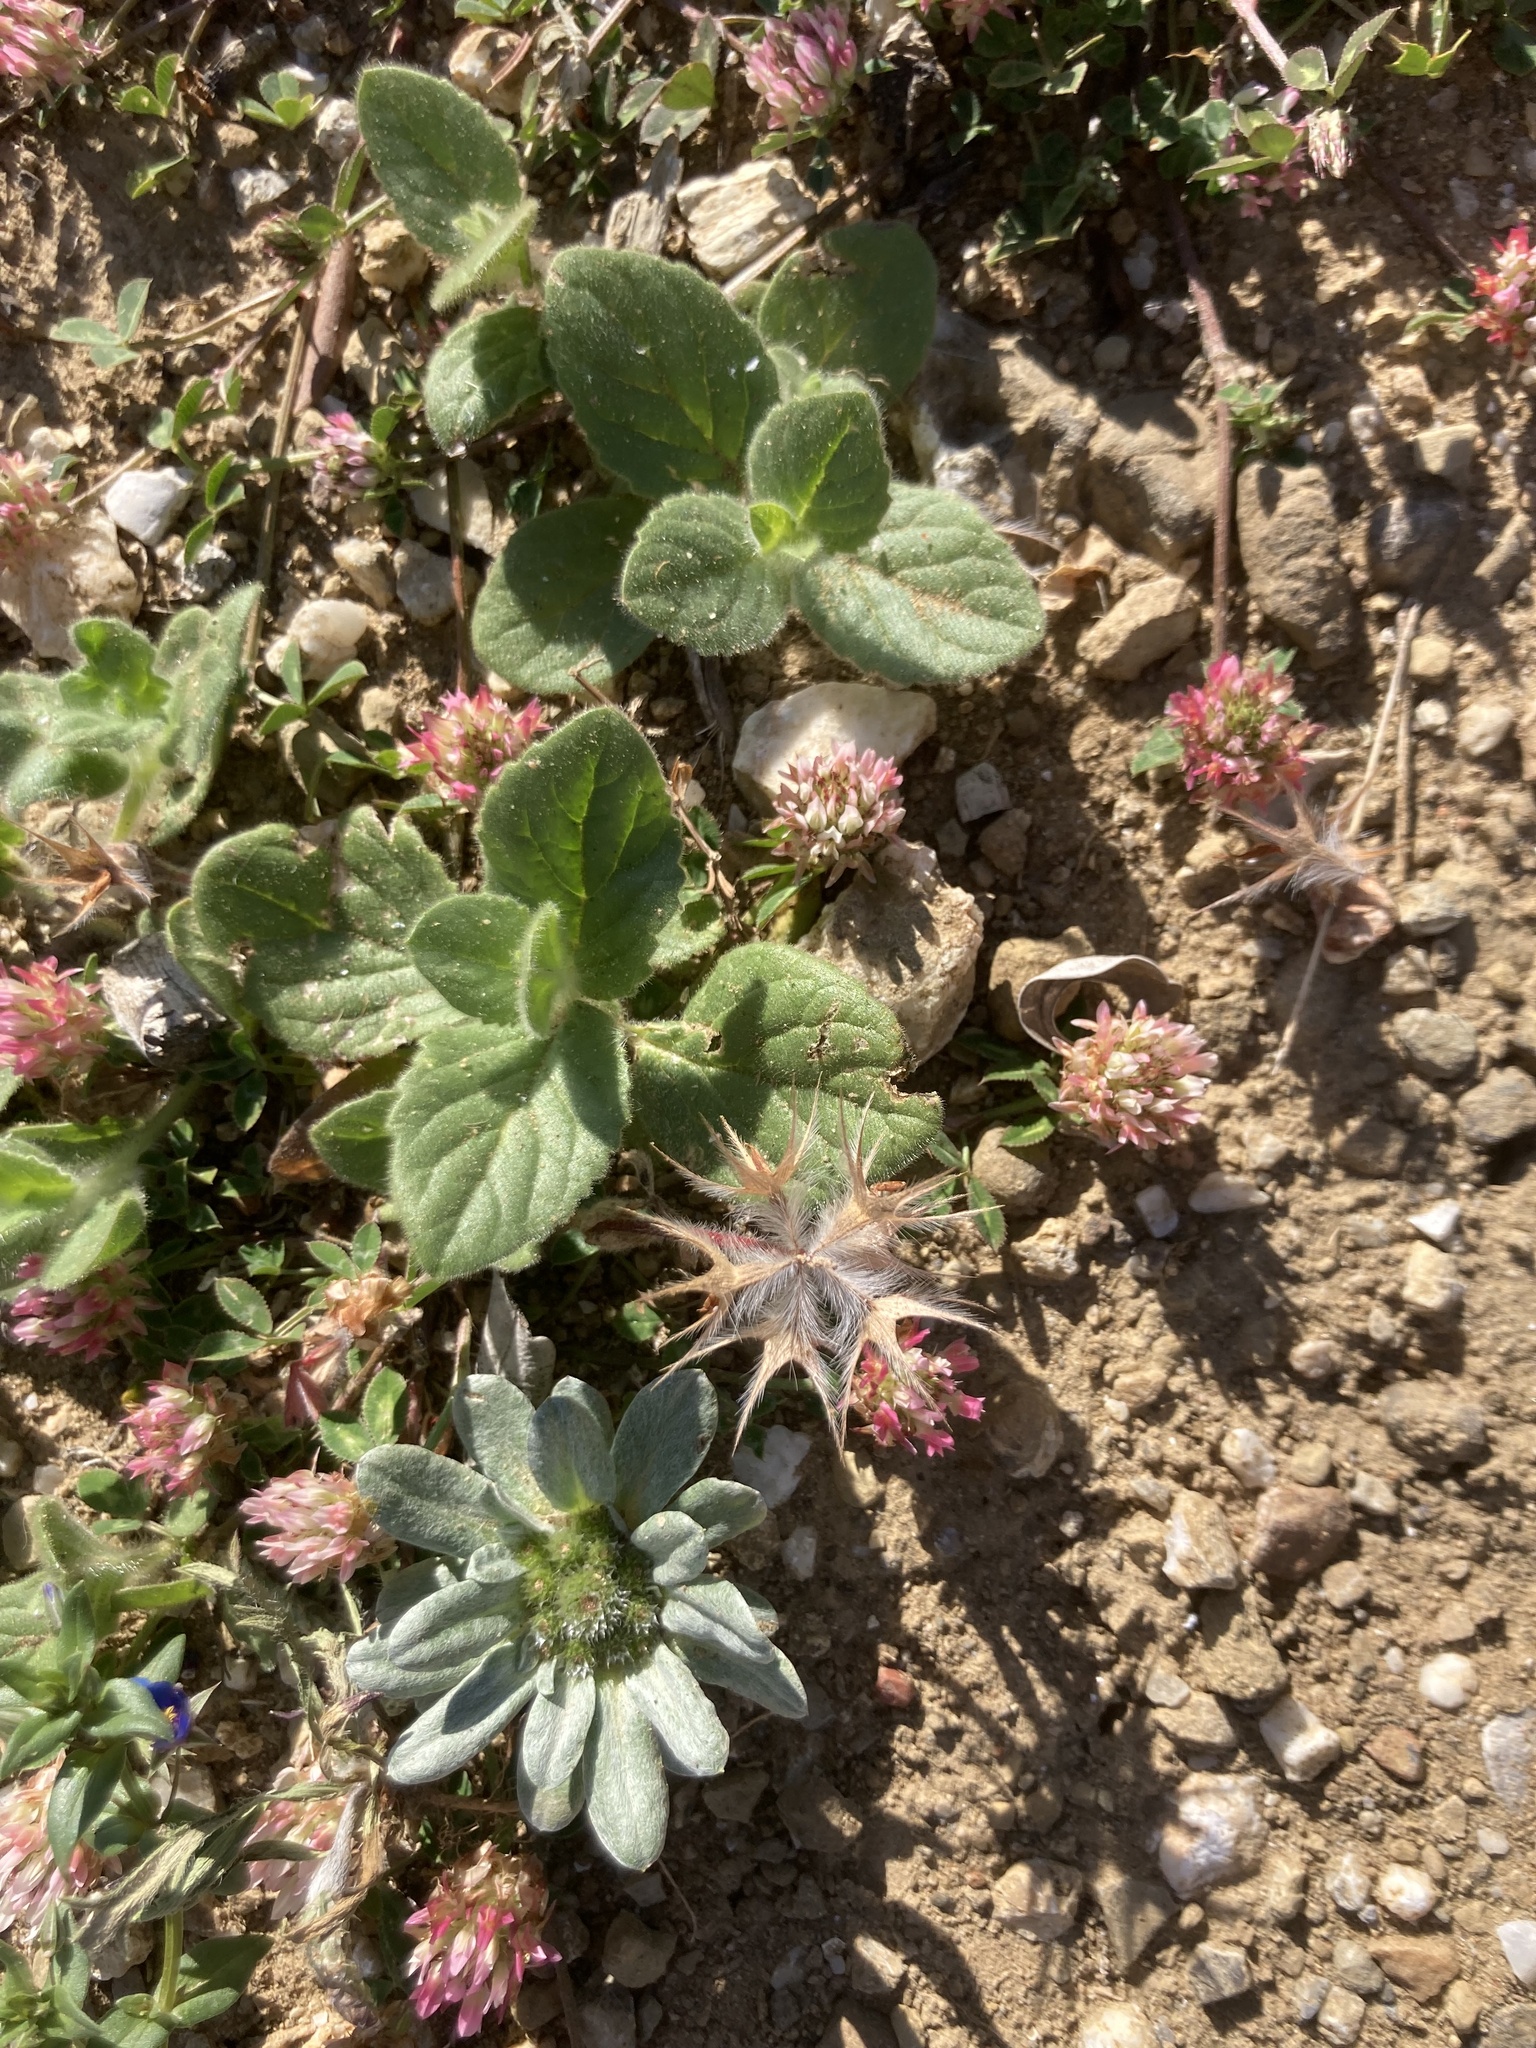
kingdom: Plantae
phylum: Tracheophyta
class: Magnoliopsida
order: Fabales
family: Fabaceae
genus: Trifolium
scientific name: Trifolium stellatum
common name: Starry clover
